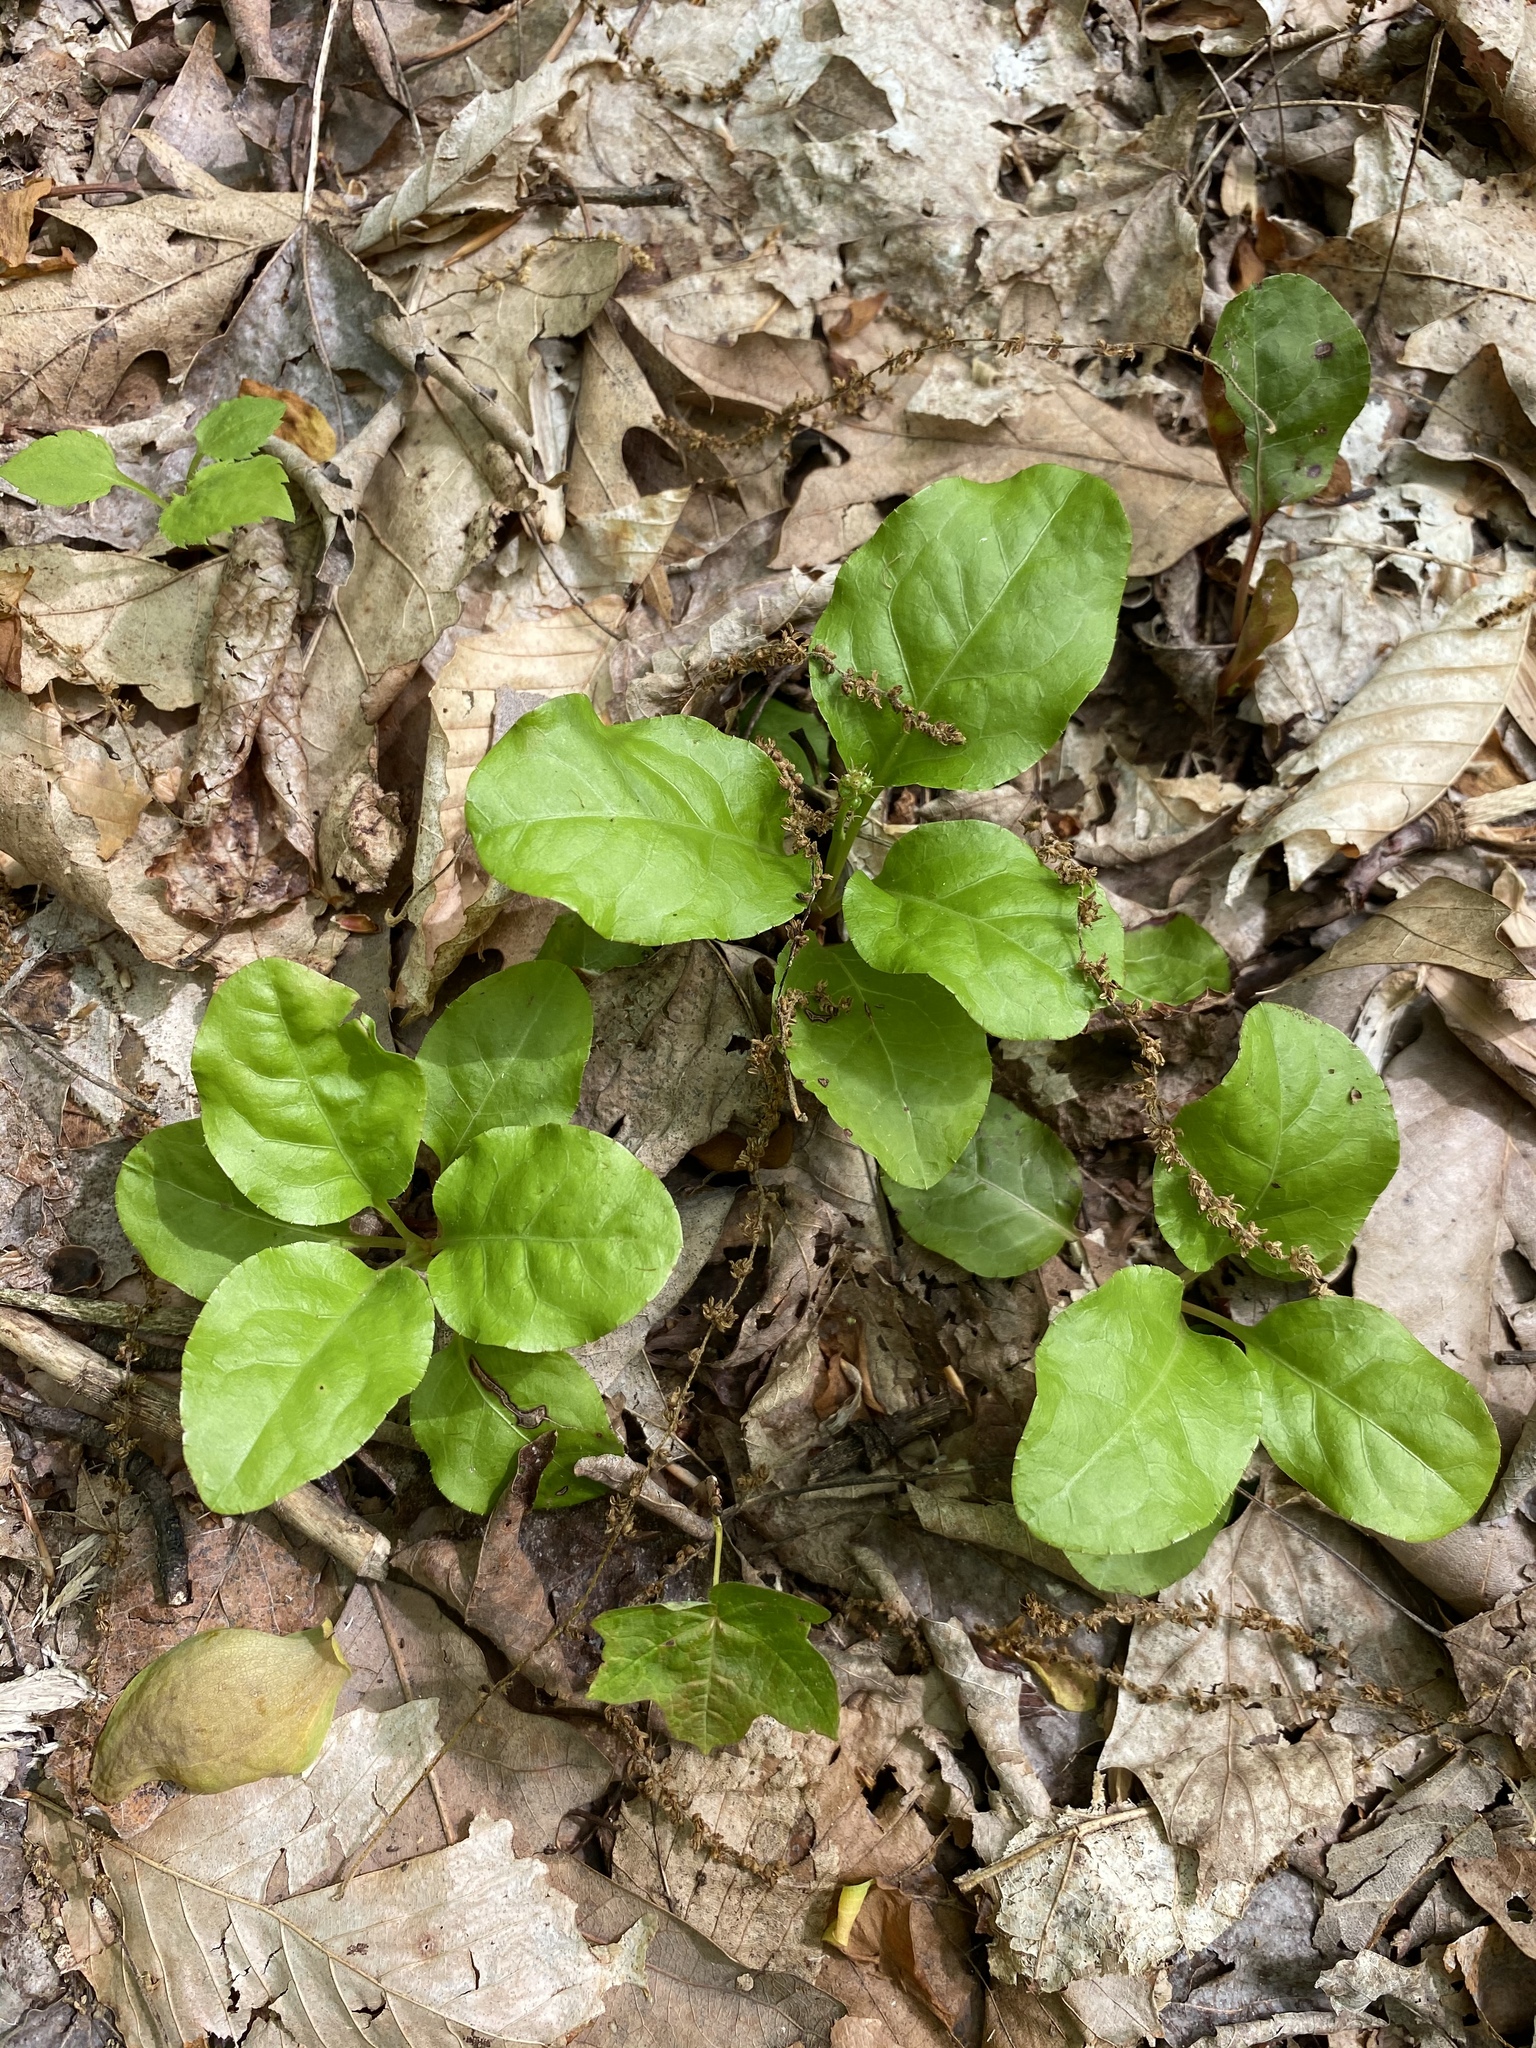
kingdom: Plantae
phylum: Tracheophyta
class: Magnoliopsida
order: Ericales
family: Ericaceae
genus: Pyrola
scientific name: Pyrola elliptica
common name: Shinleaf
